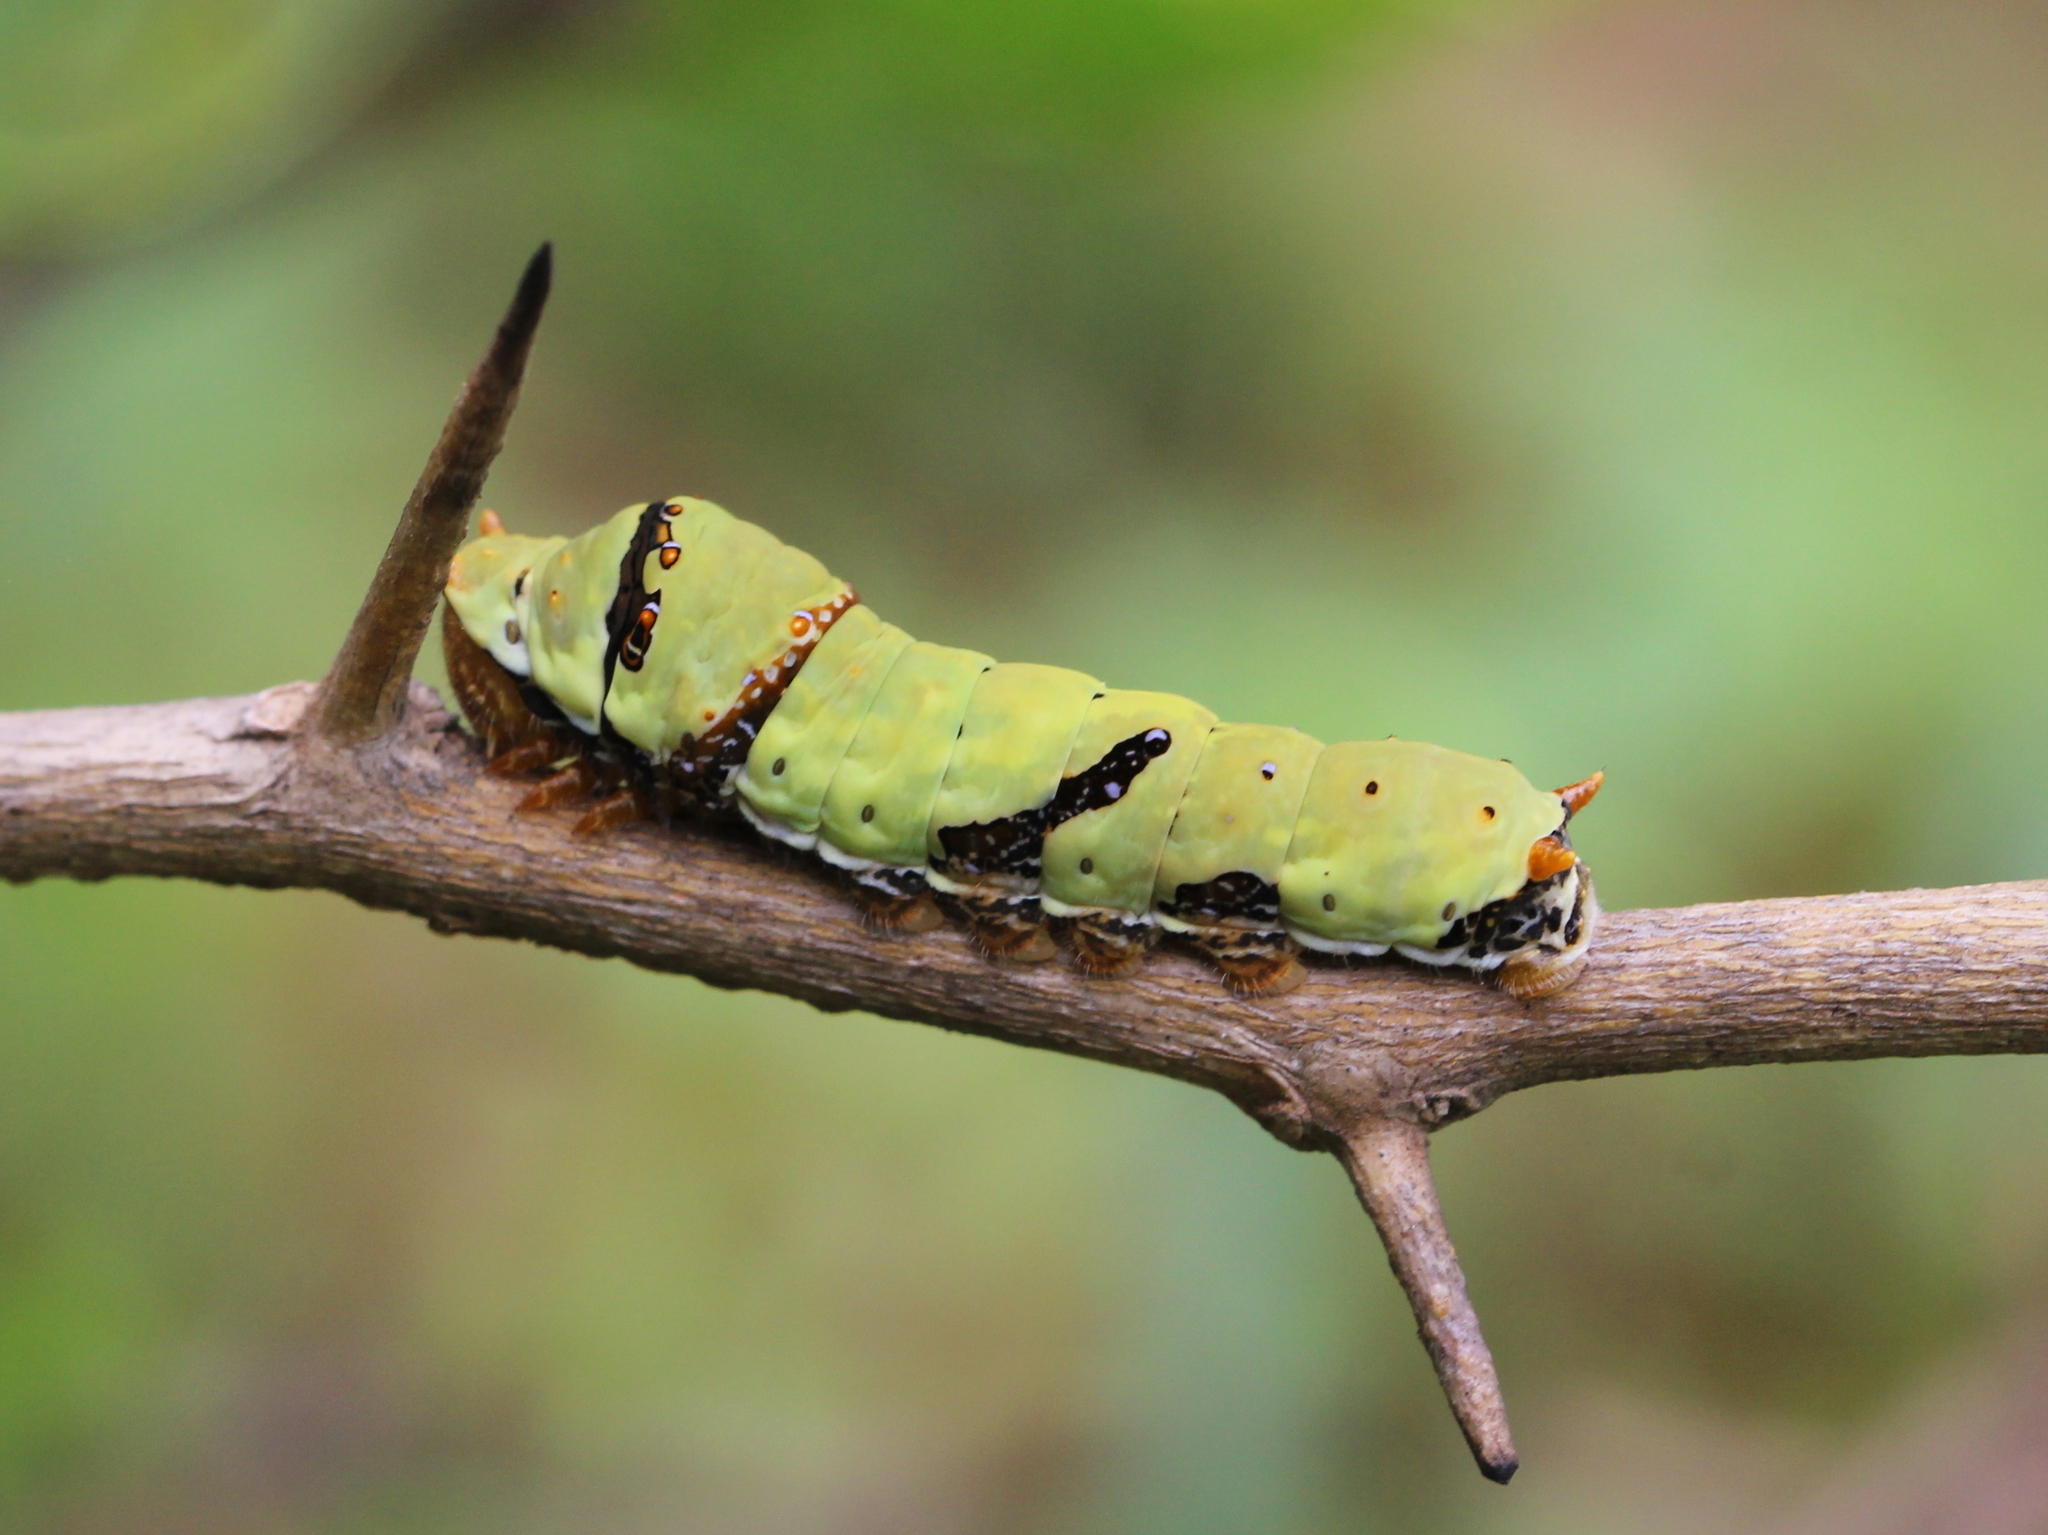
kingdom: Animalia
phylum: Arthropoda
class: Insecta
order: Lepidoptera
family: Papilionidae
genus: Papilio
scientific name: Papilio demoleus
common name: Lime butterfly
